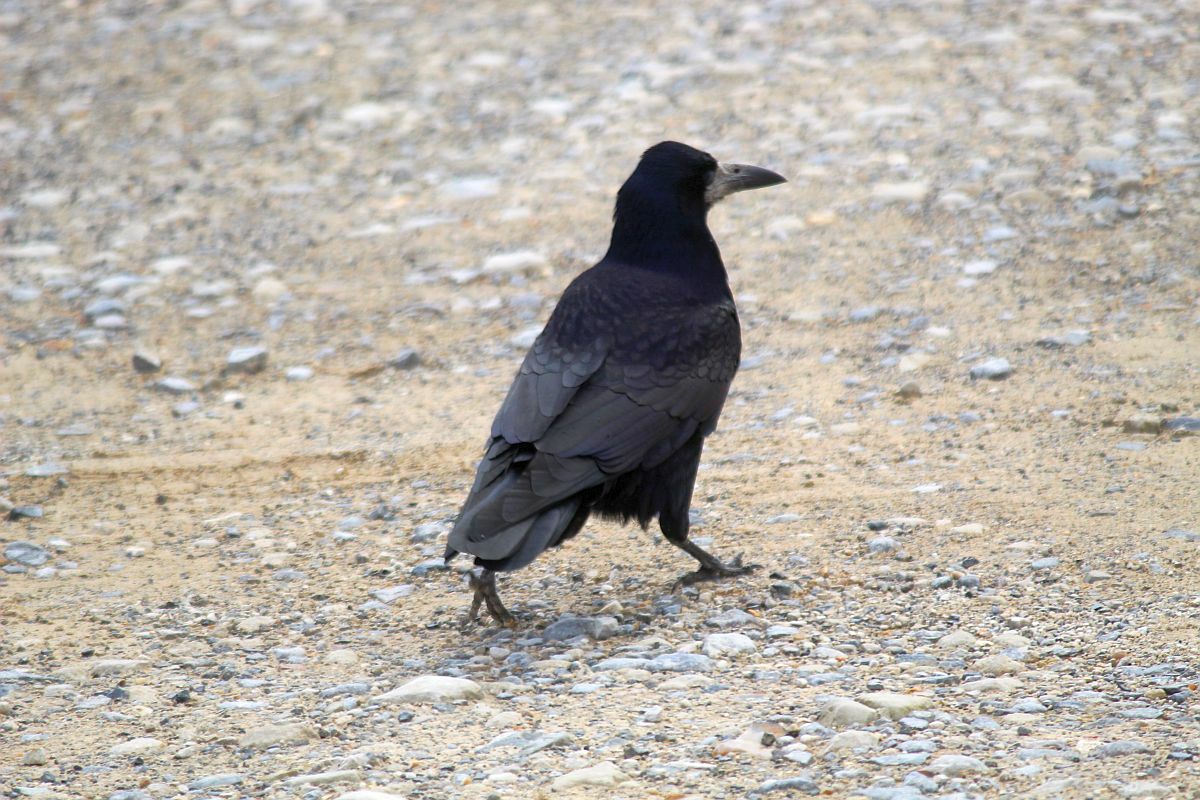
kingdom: Animalia
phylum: Chordata
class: Aves
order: Passeriformes
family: Corvidae
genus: Corvus
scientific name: Corvus frugilegus
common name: Rook
